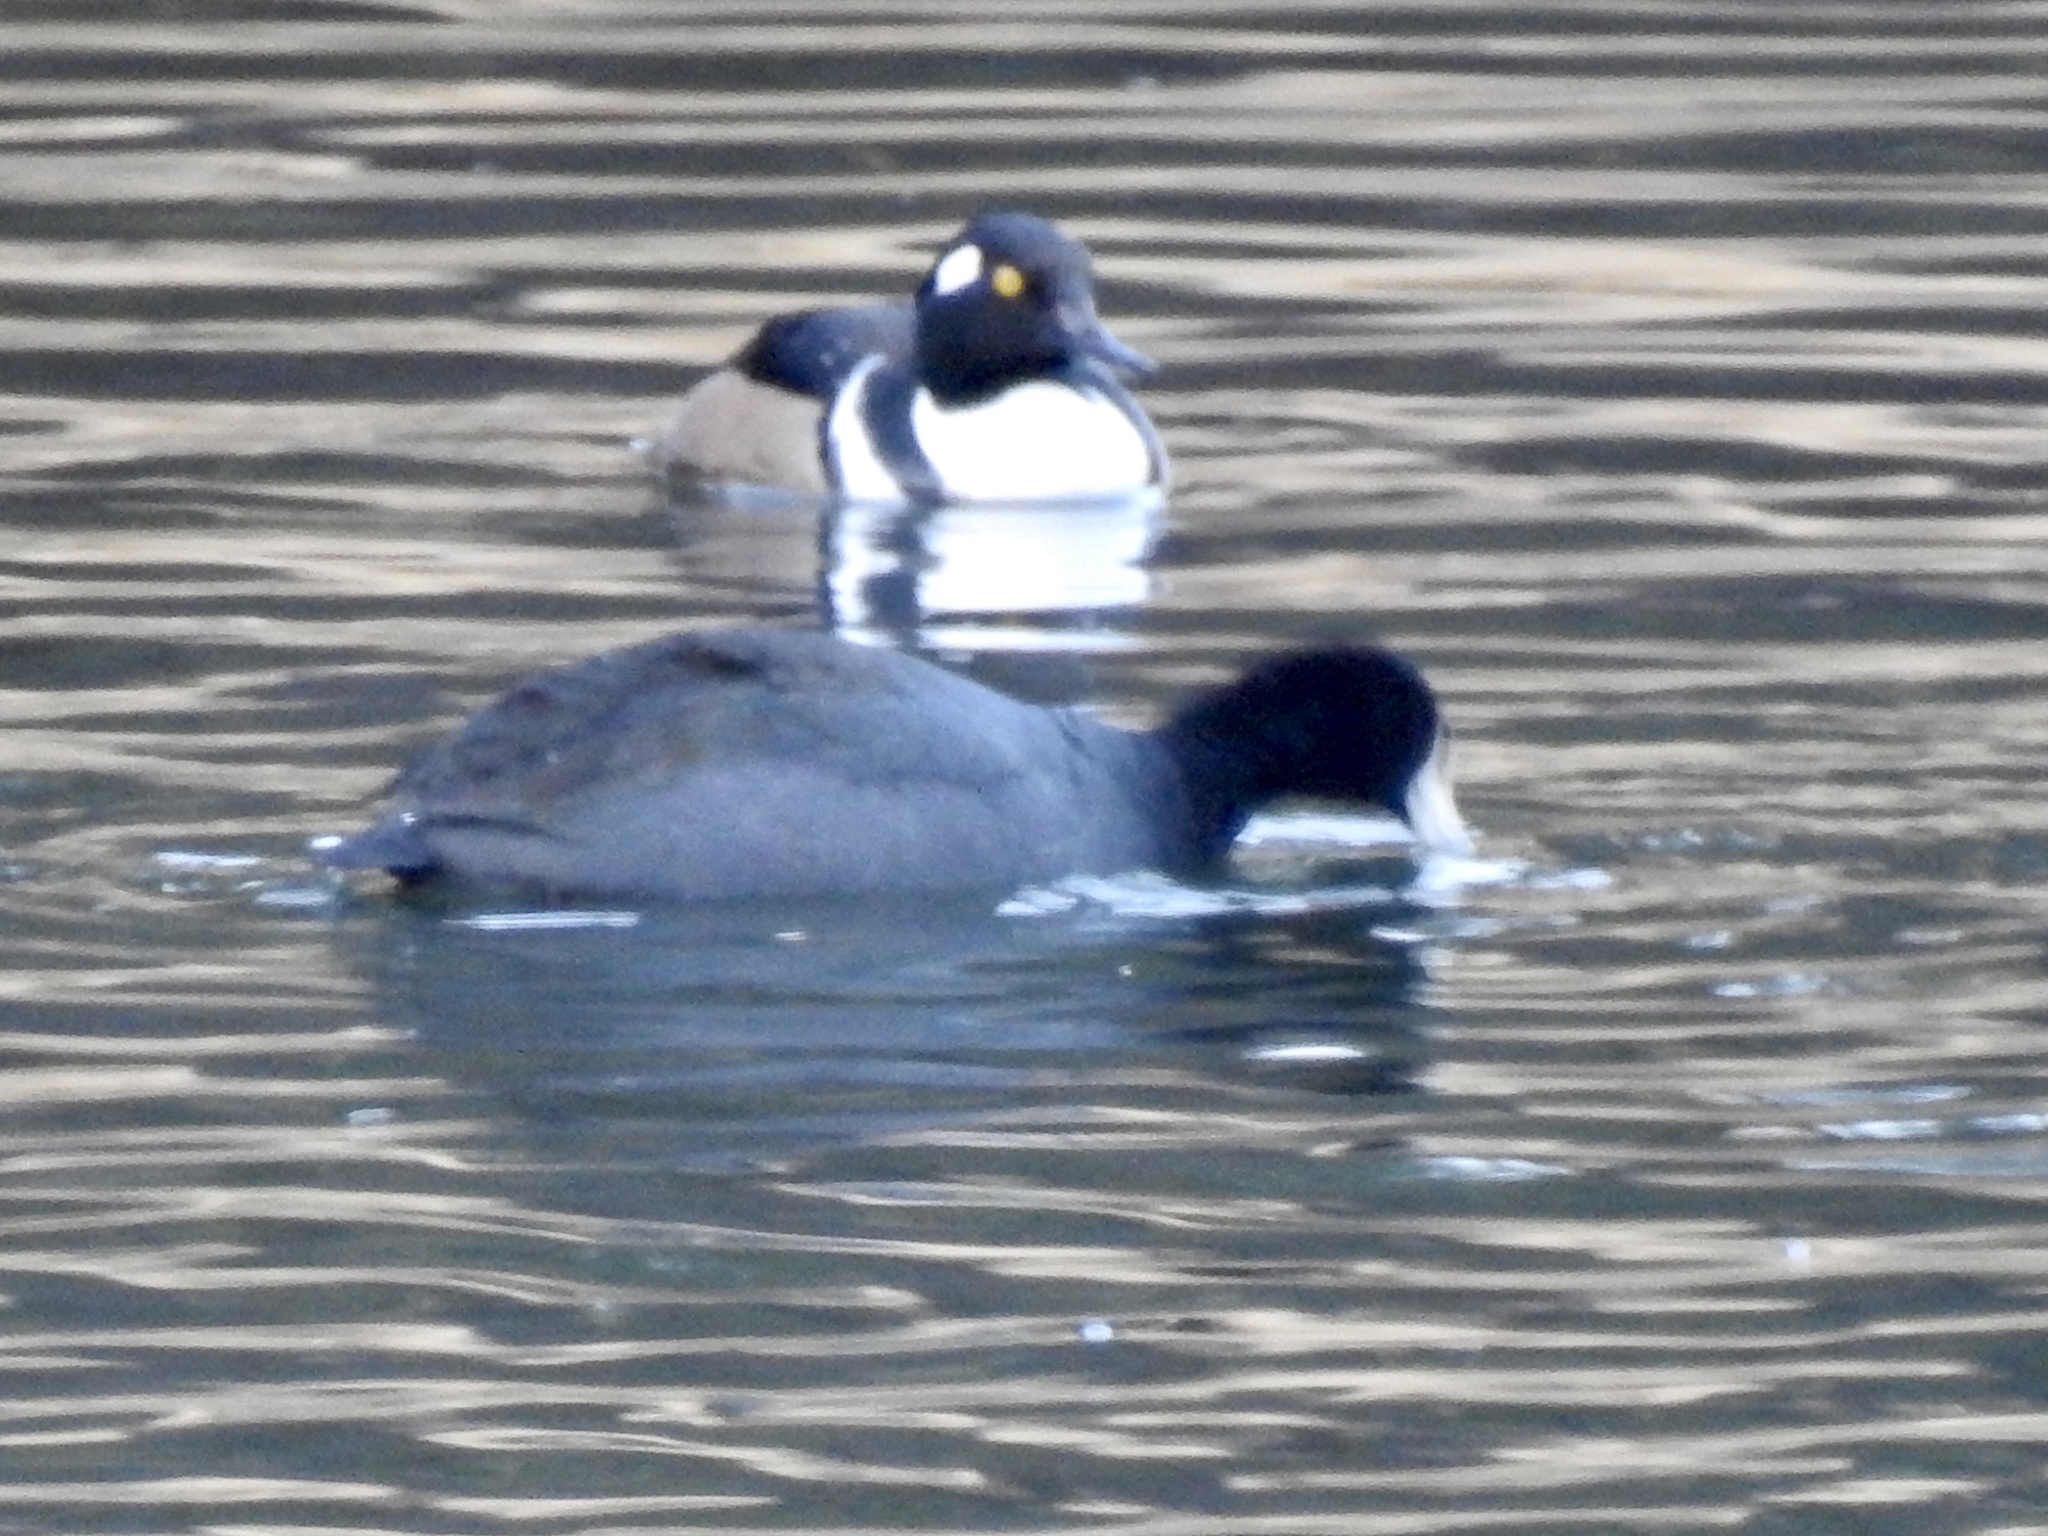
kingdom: Animalia
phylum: Chordata
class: Aves
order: Gruiformes
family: Rallidae
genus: Fulica
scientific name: Fulica americana
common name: American coot
